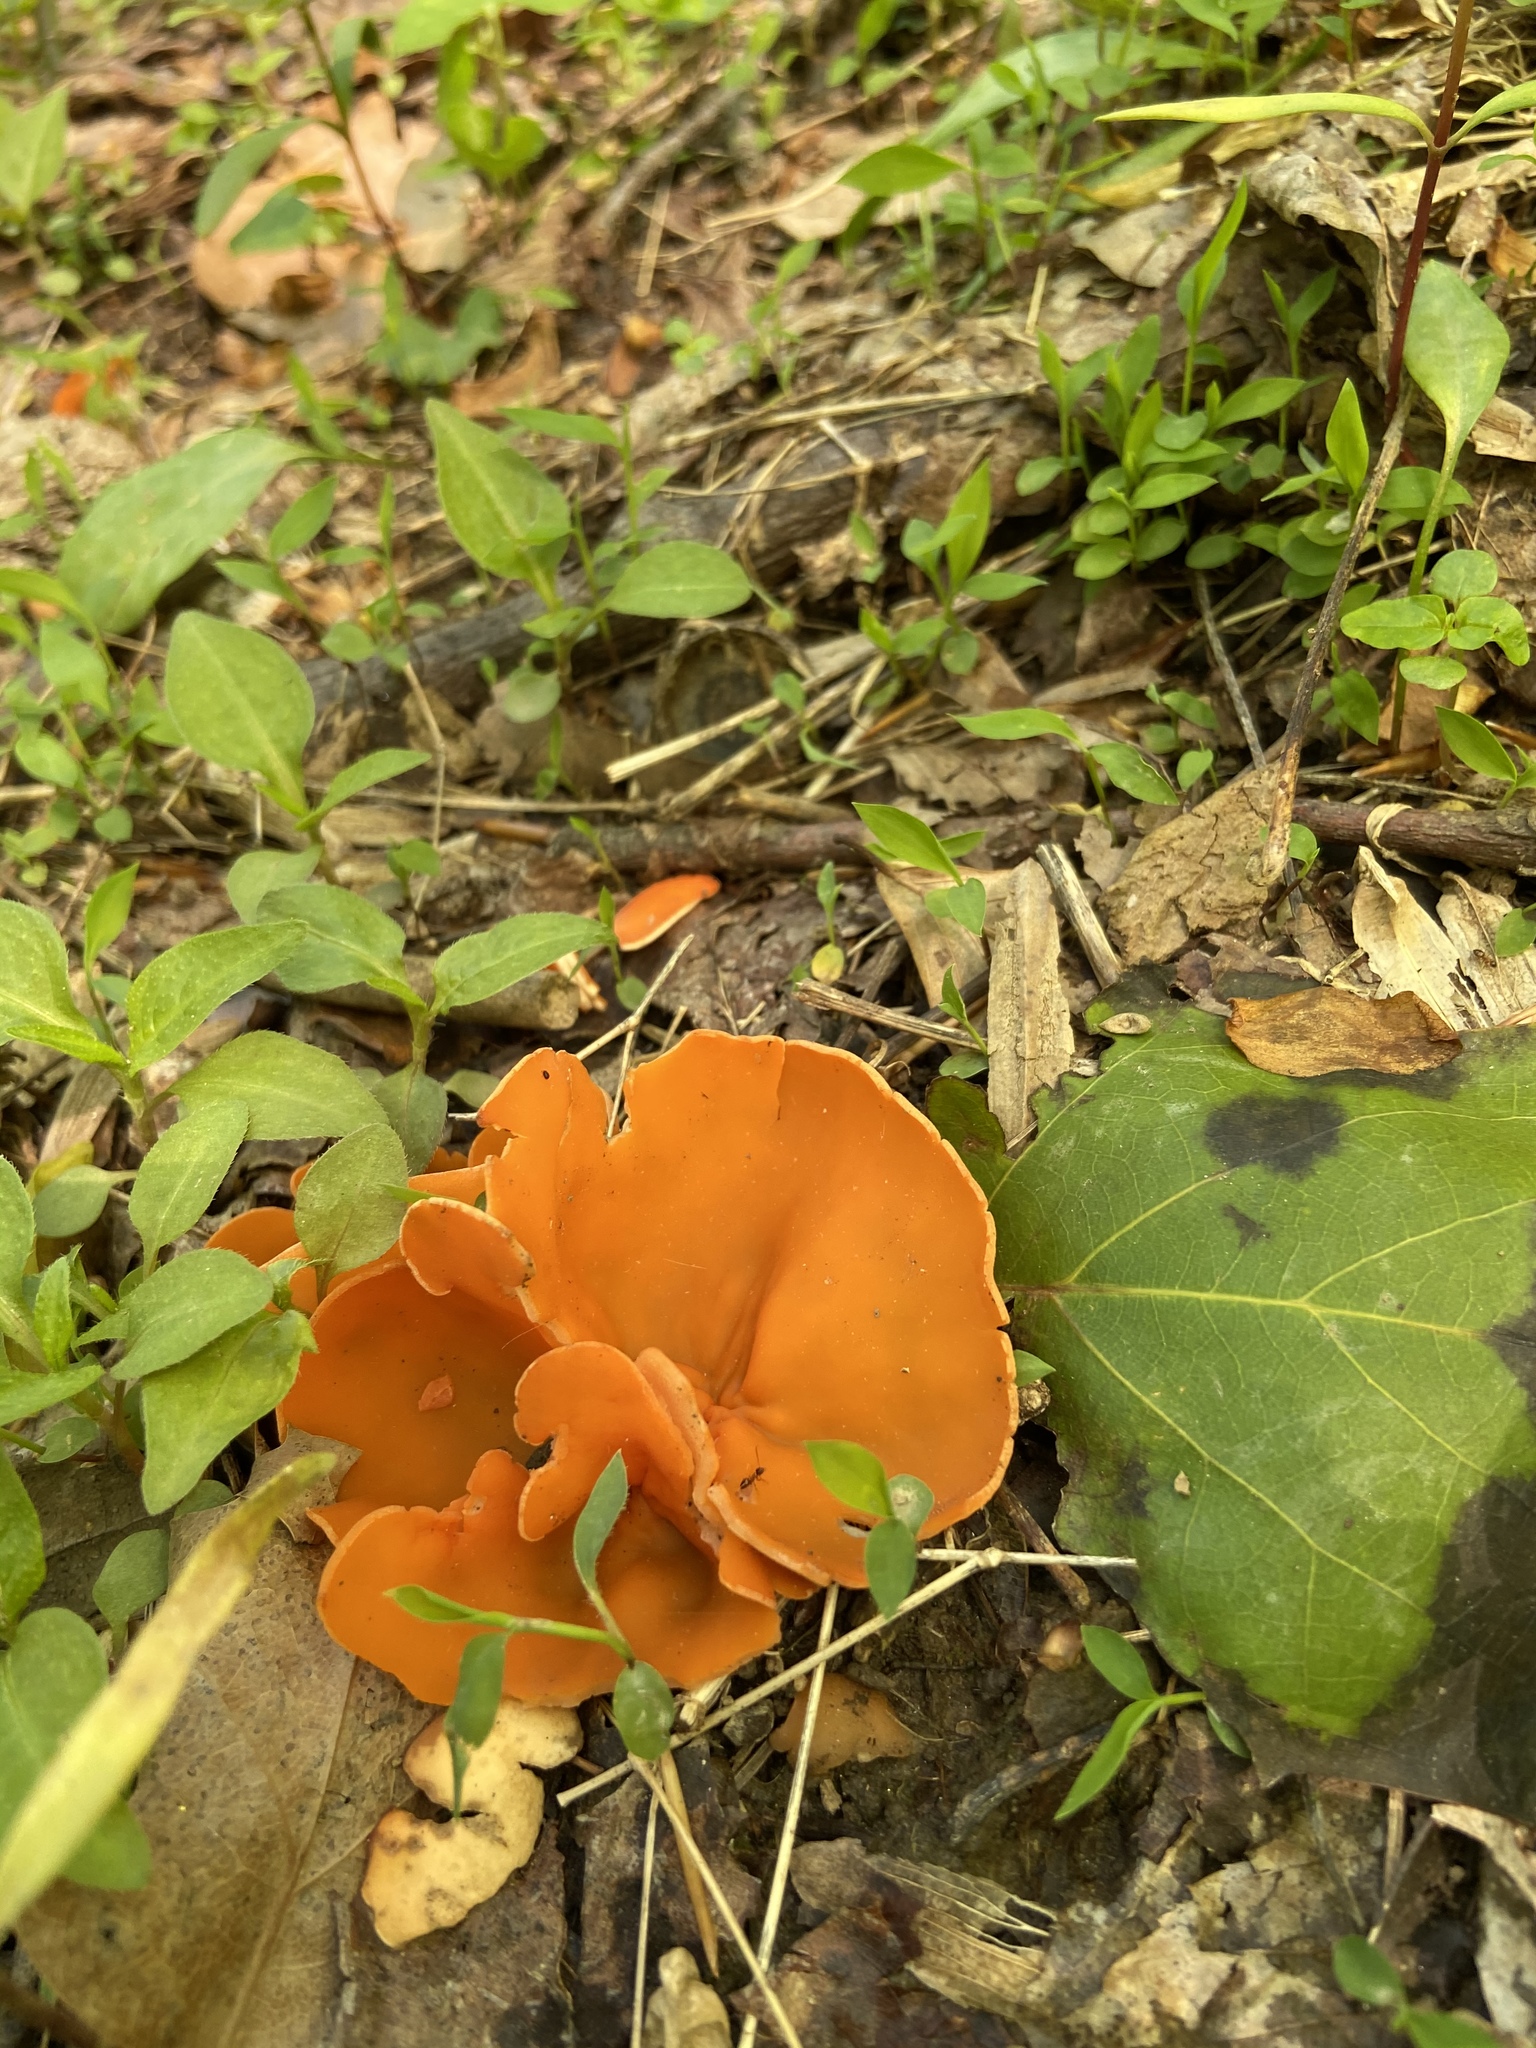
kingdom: Fungi
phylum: Ascomycota
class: Pezizomycetes
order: Pezizales
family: Pyronemataceae
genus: Aleuria
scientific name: Aleuria aurantia
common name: Orange peel fungus
